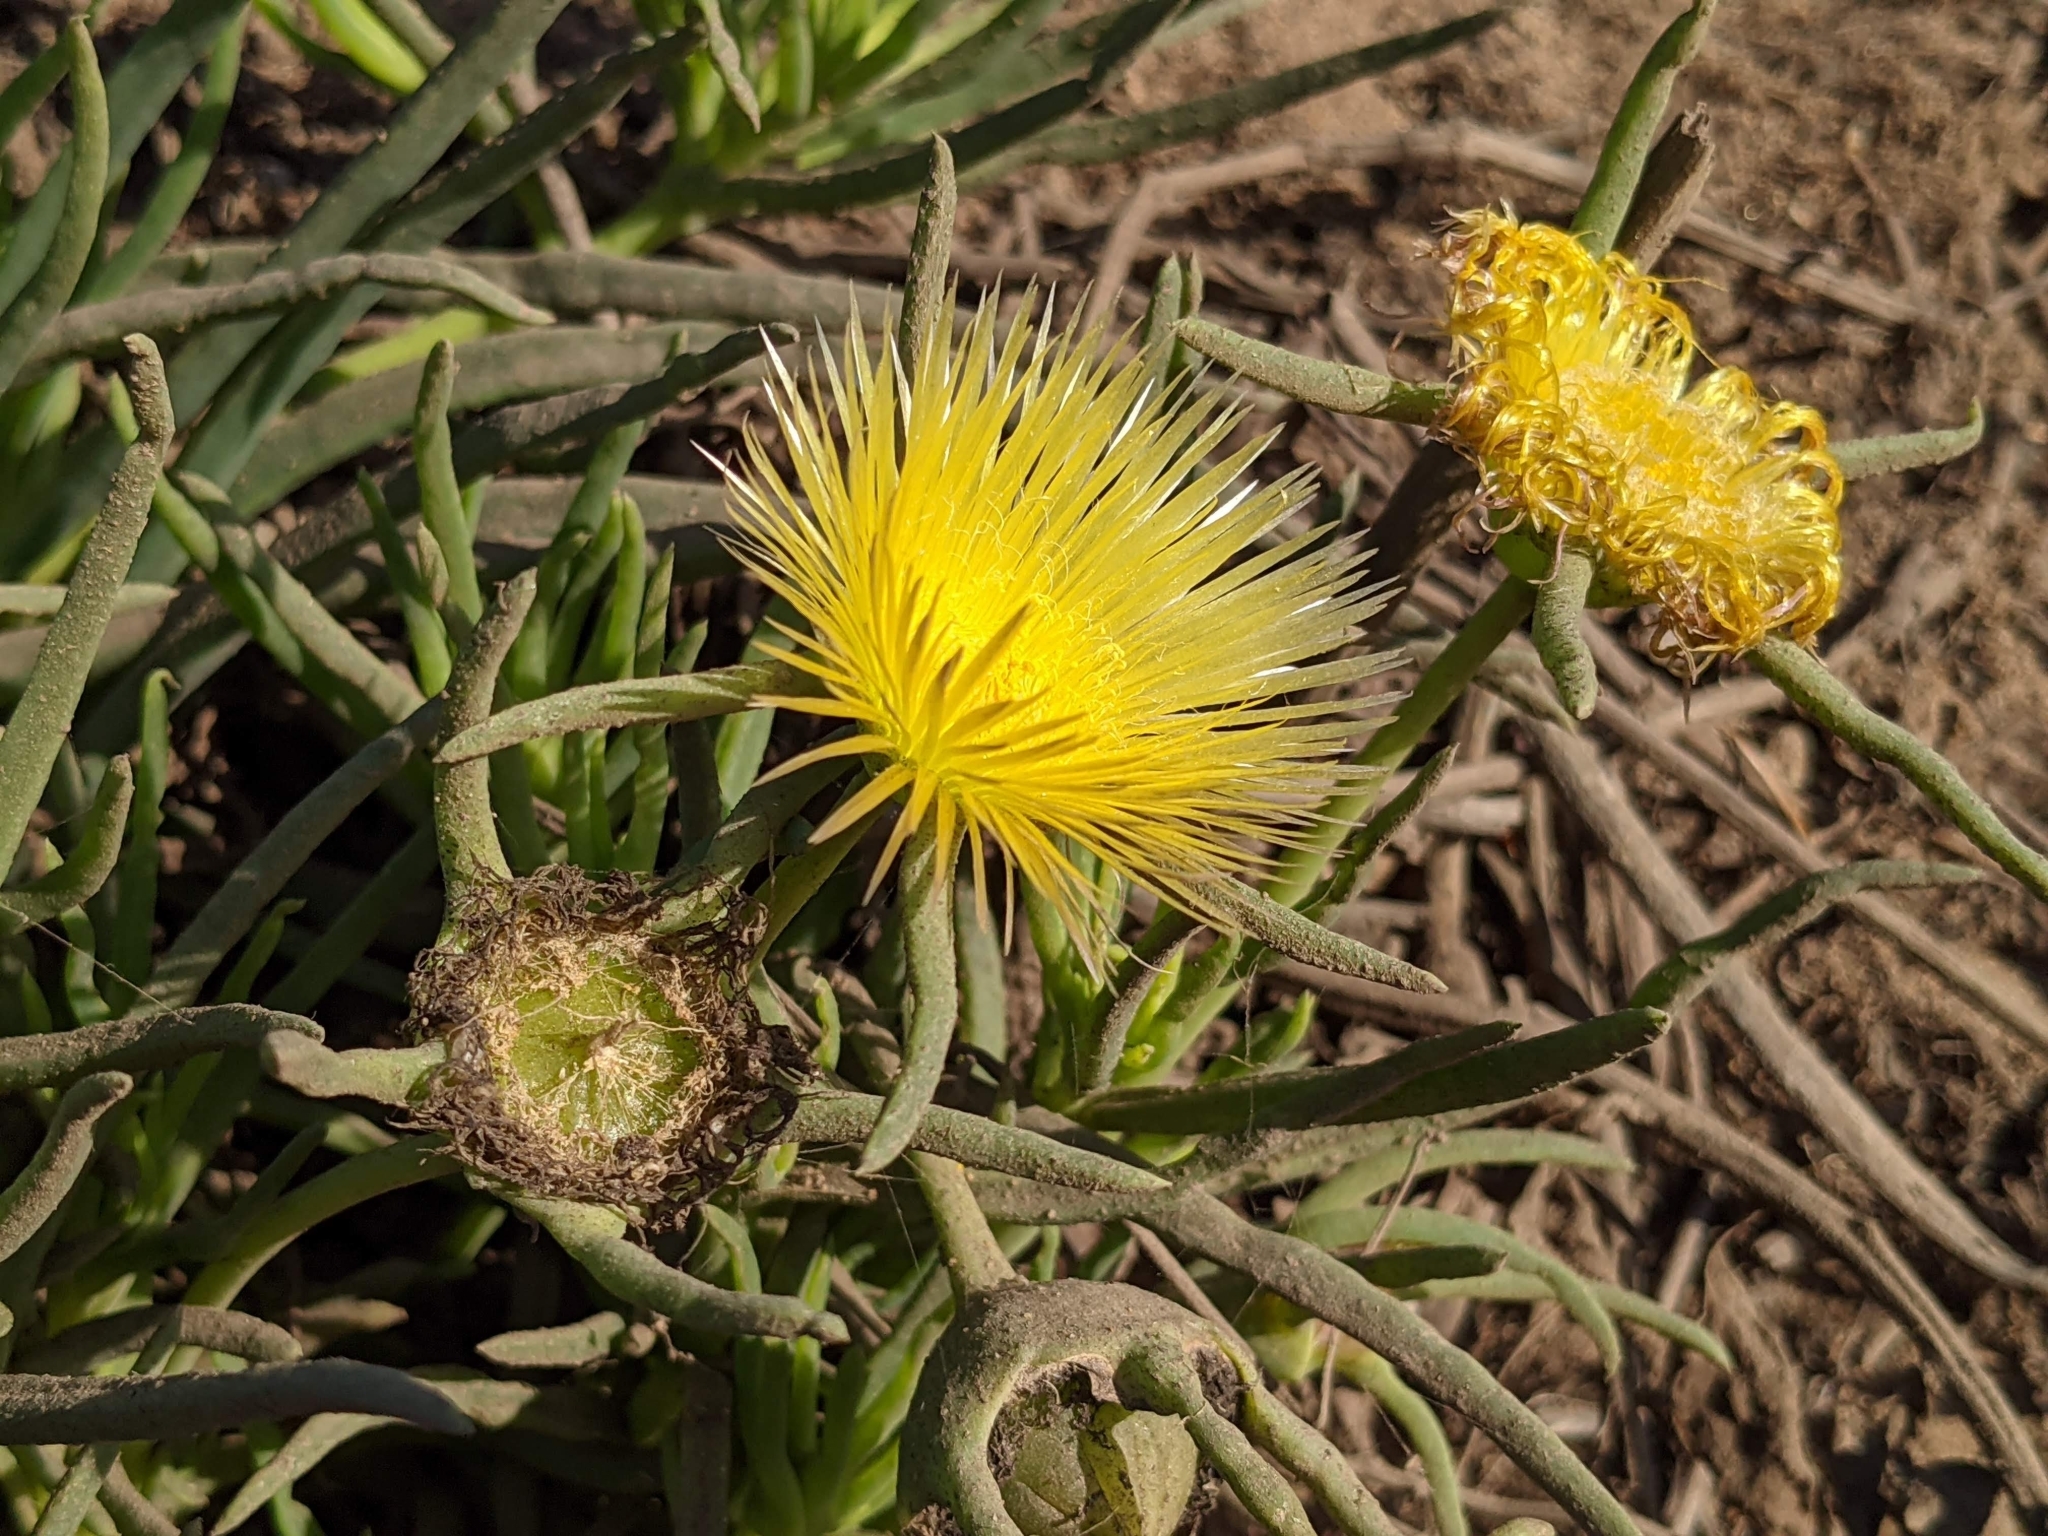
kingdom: Plantae
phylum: Tracheophyta
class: Magnoliopsida
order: Caryophyllales
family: Aizoaceae
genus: Conicosia
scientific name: Conicosia pugioniformis
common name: Narrow-leaved iceplant
